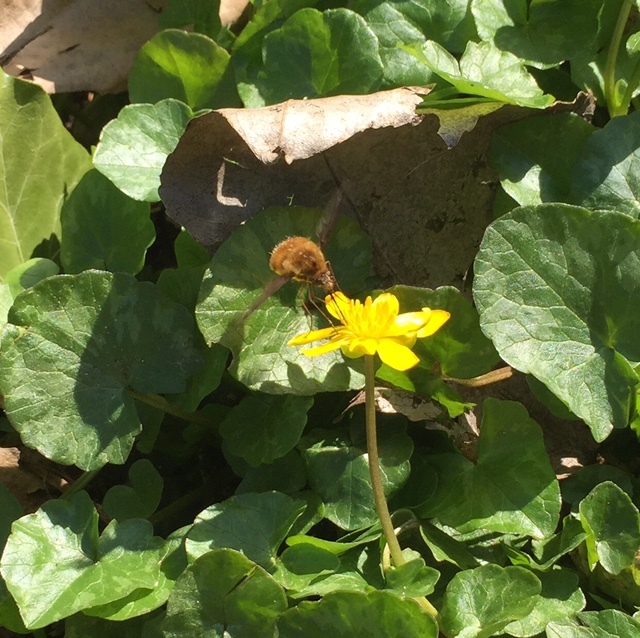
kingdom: Animalia
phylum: Arthropoda
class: Insecta
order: Diptera
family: Bombyliidae
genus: Bombylius
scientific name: Bombylius major
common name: Bee fly
